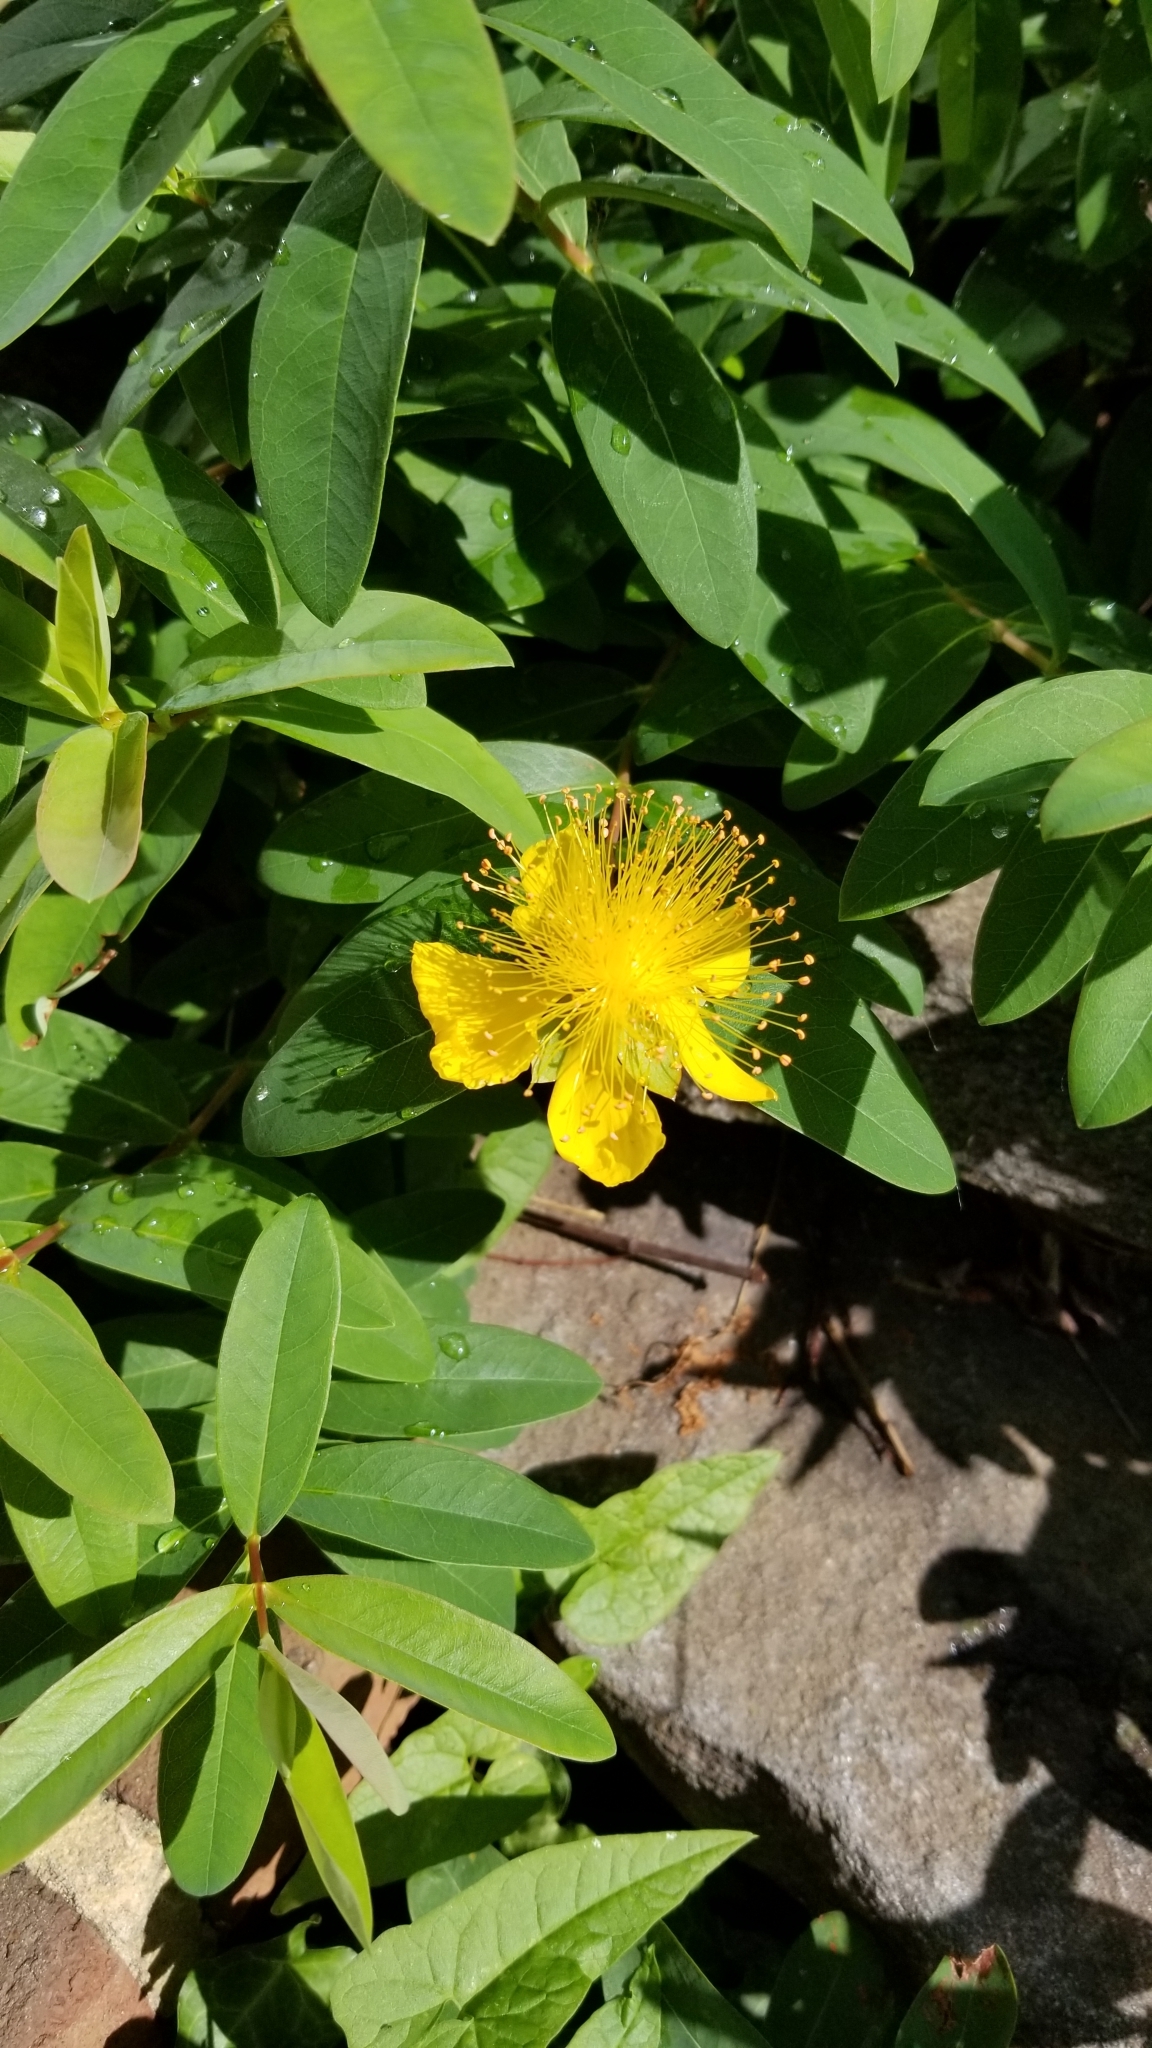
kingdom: Plantae
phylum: Tracheophyta
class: Magnoliopsida
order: Malpighiales
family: Hypericaceae
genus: Hypericum
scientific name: Hypericum calycinum
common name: Rose-of-sharon
